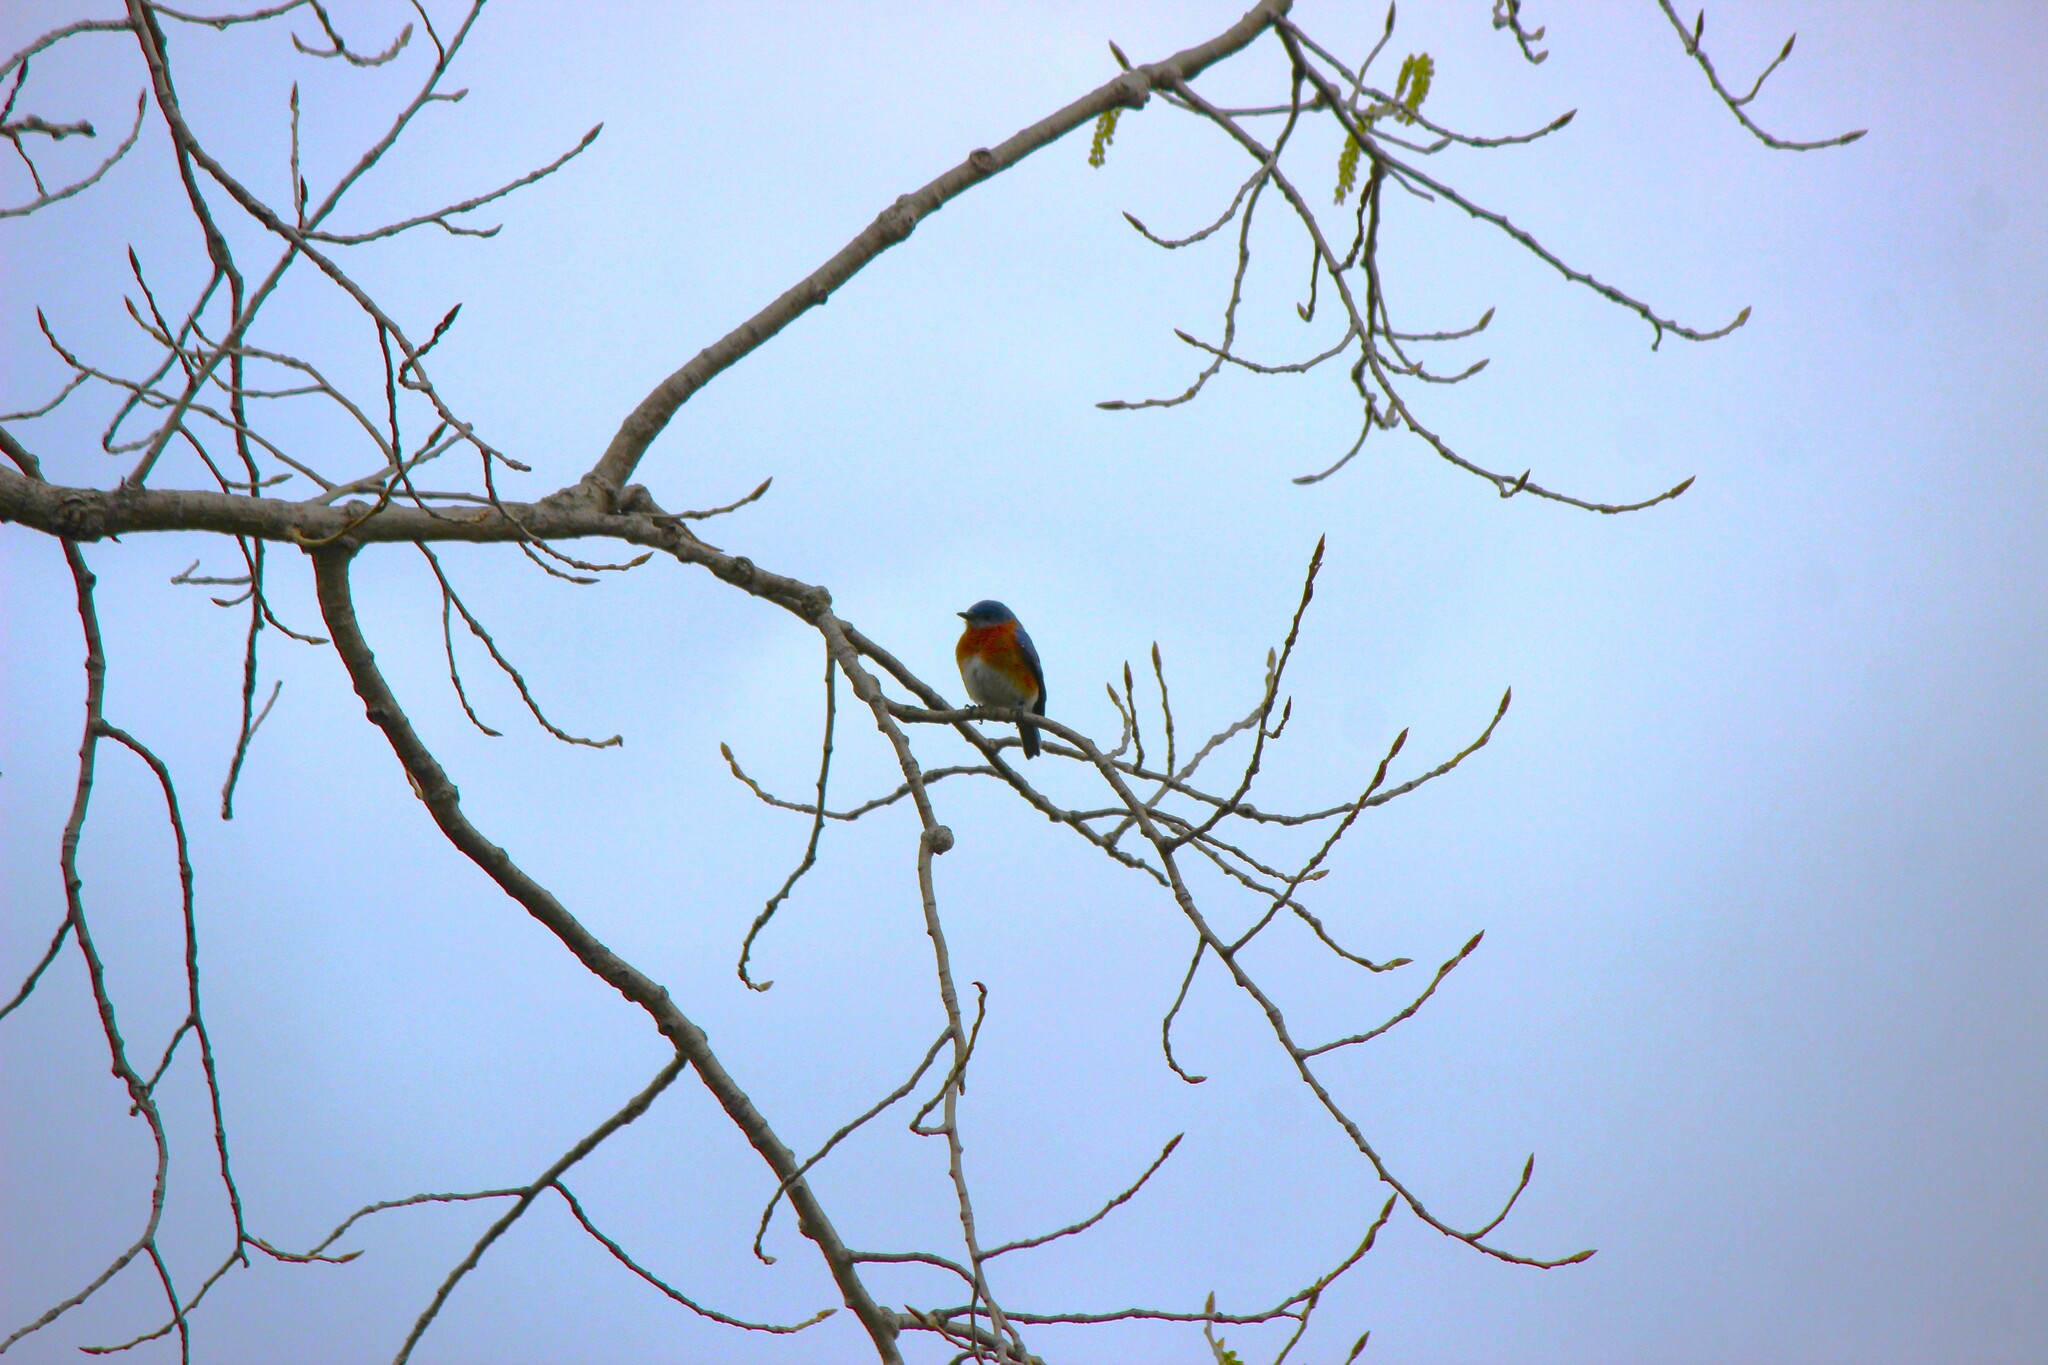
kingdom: Animalia
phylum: Chordata
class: Aves
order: Passeriformes
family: Turdidae
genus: Sialia
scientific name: Sialia sialis
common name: Eastern bluebird
